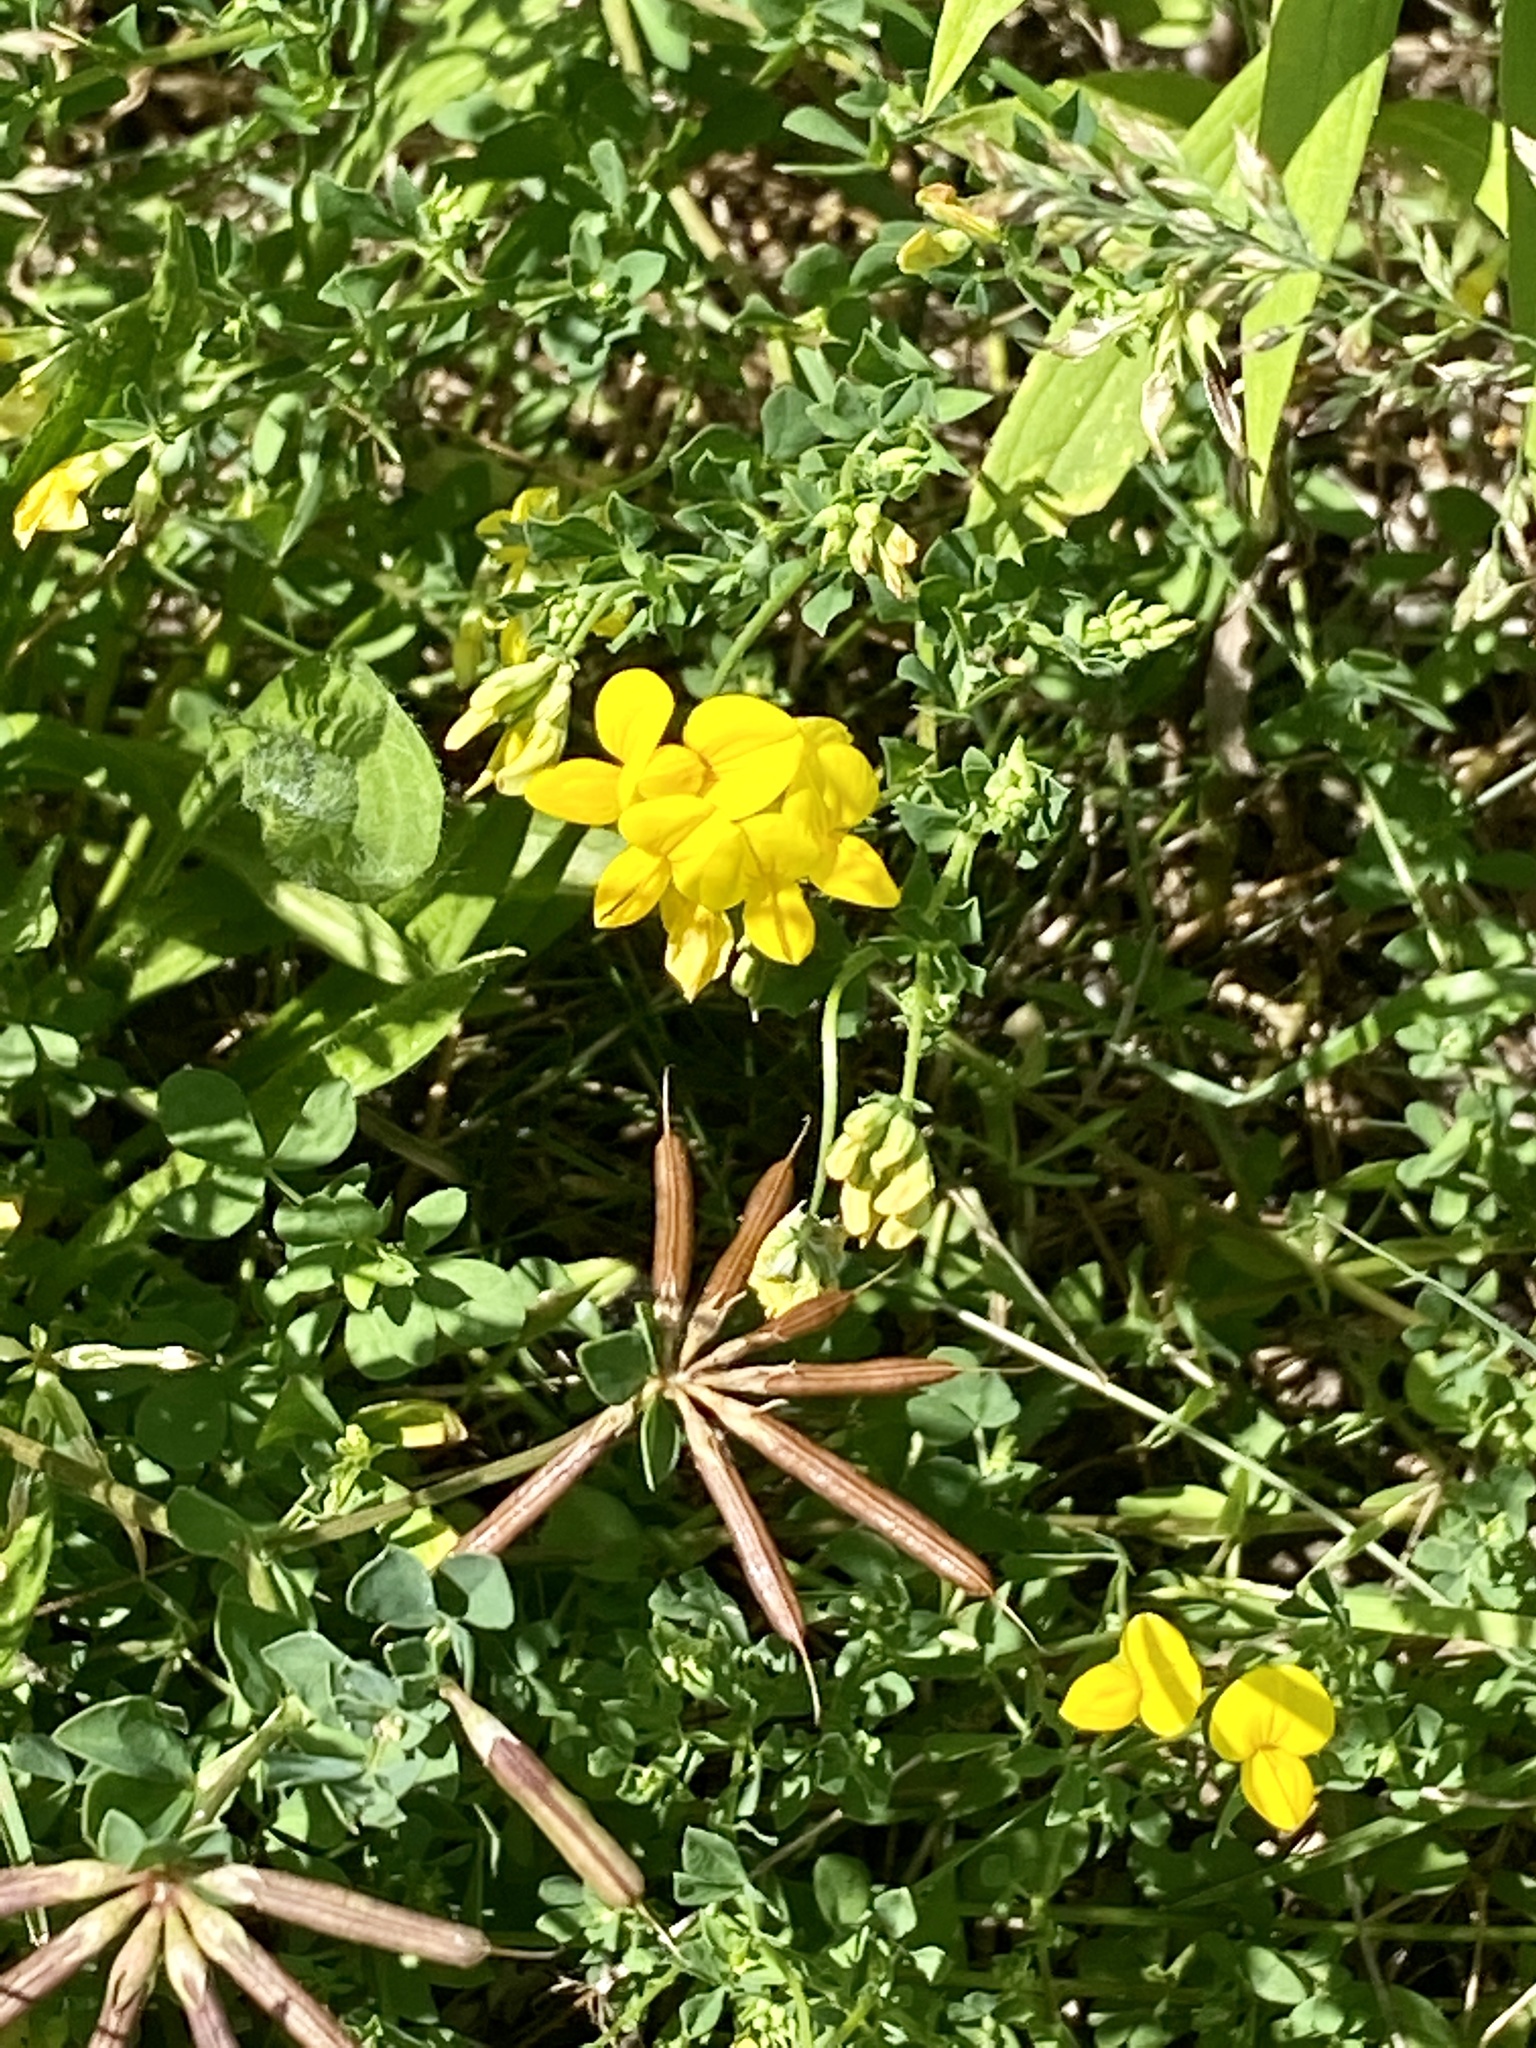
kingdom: Plantae
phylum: Tracheophyta
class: Magnoliopsida
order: Fabales
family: Fabaceae
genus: Lotus
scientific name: Lotus corniculatus
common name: Common bird's-foot-trefoil
